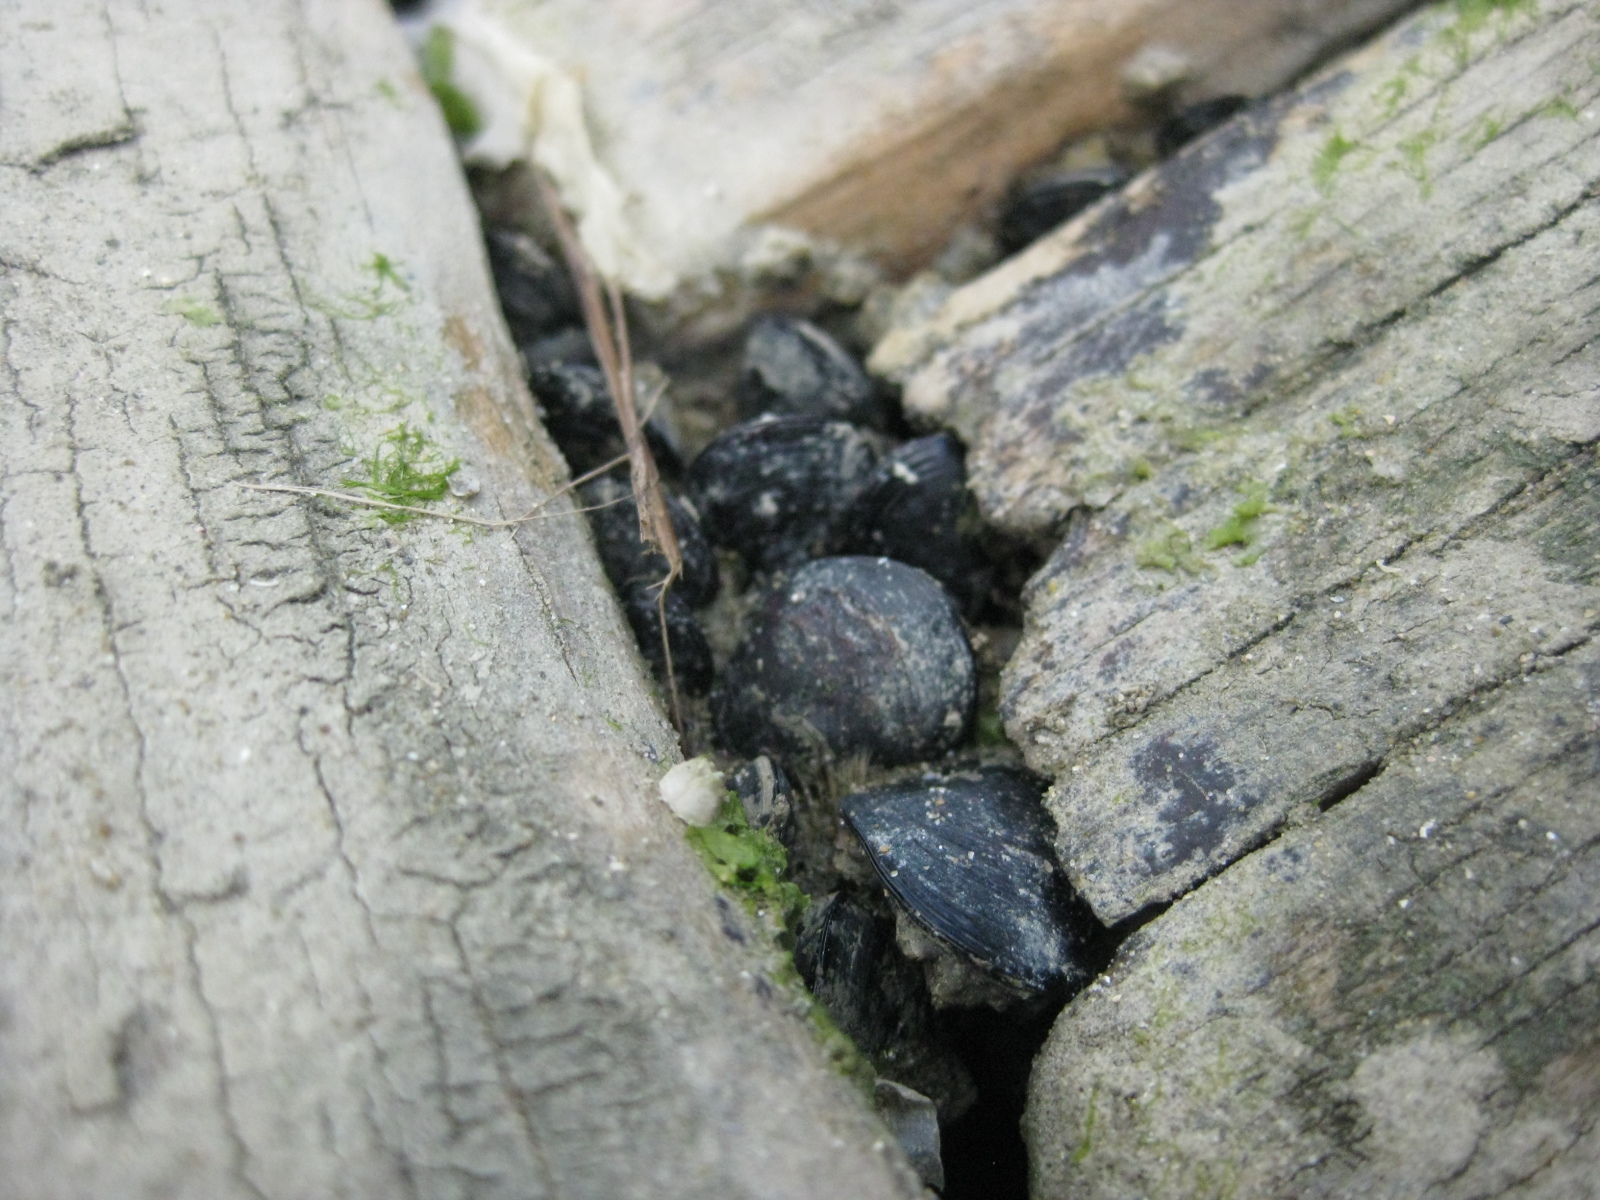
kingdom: Animalia
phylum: Mollusca
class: Bivalvia
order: Mytilida
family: Mytilidae
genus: Xenostrobus
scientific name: Xenostrobus neozelanicus
